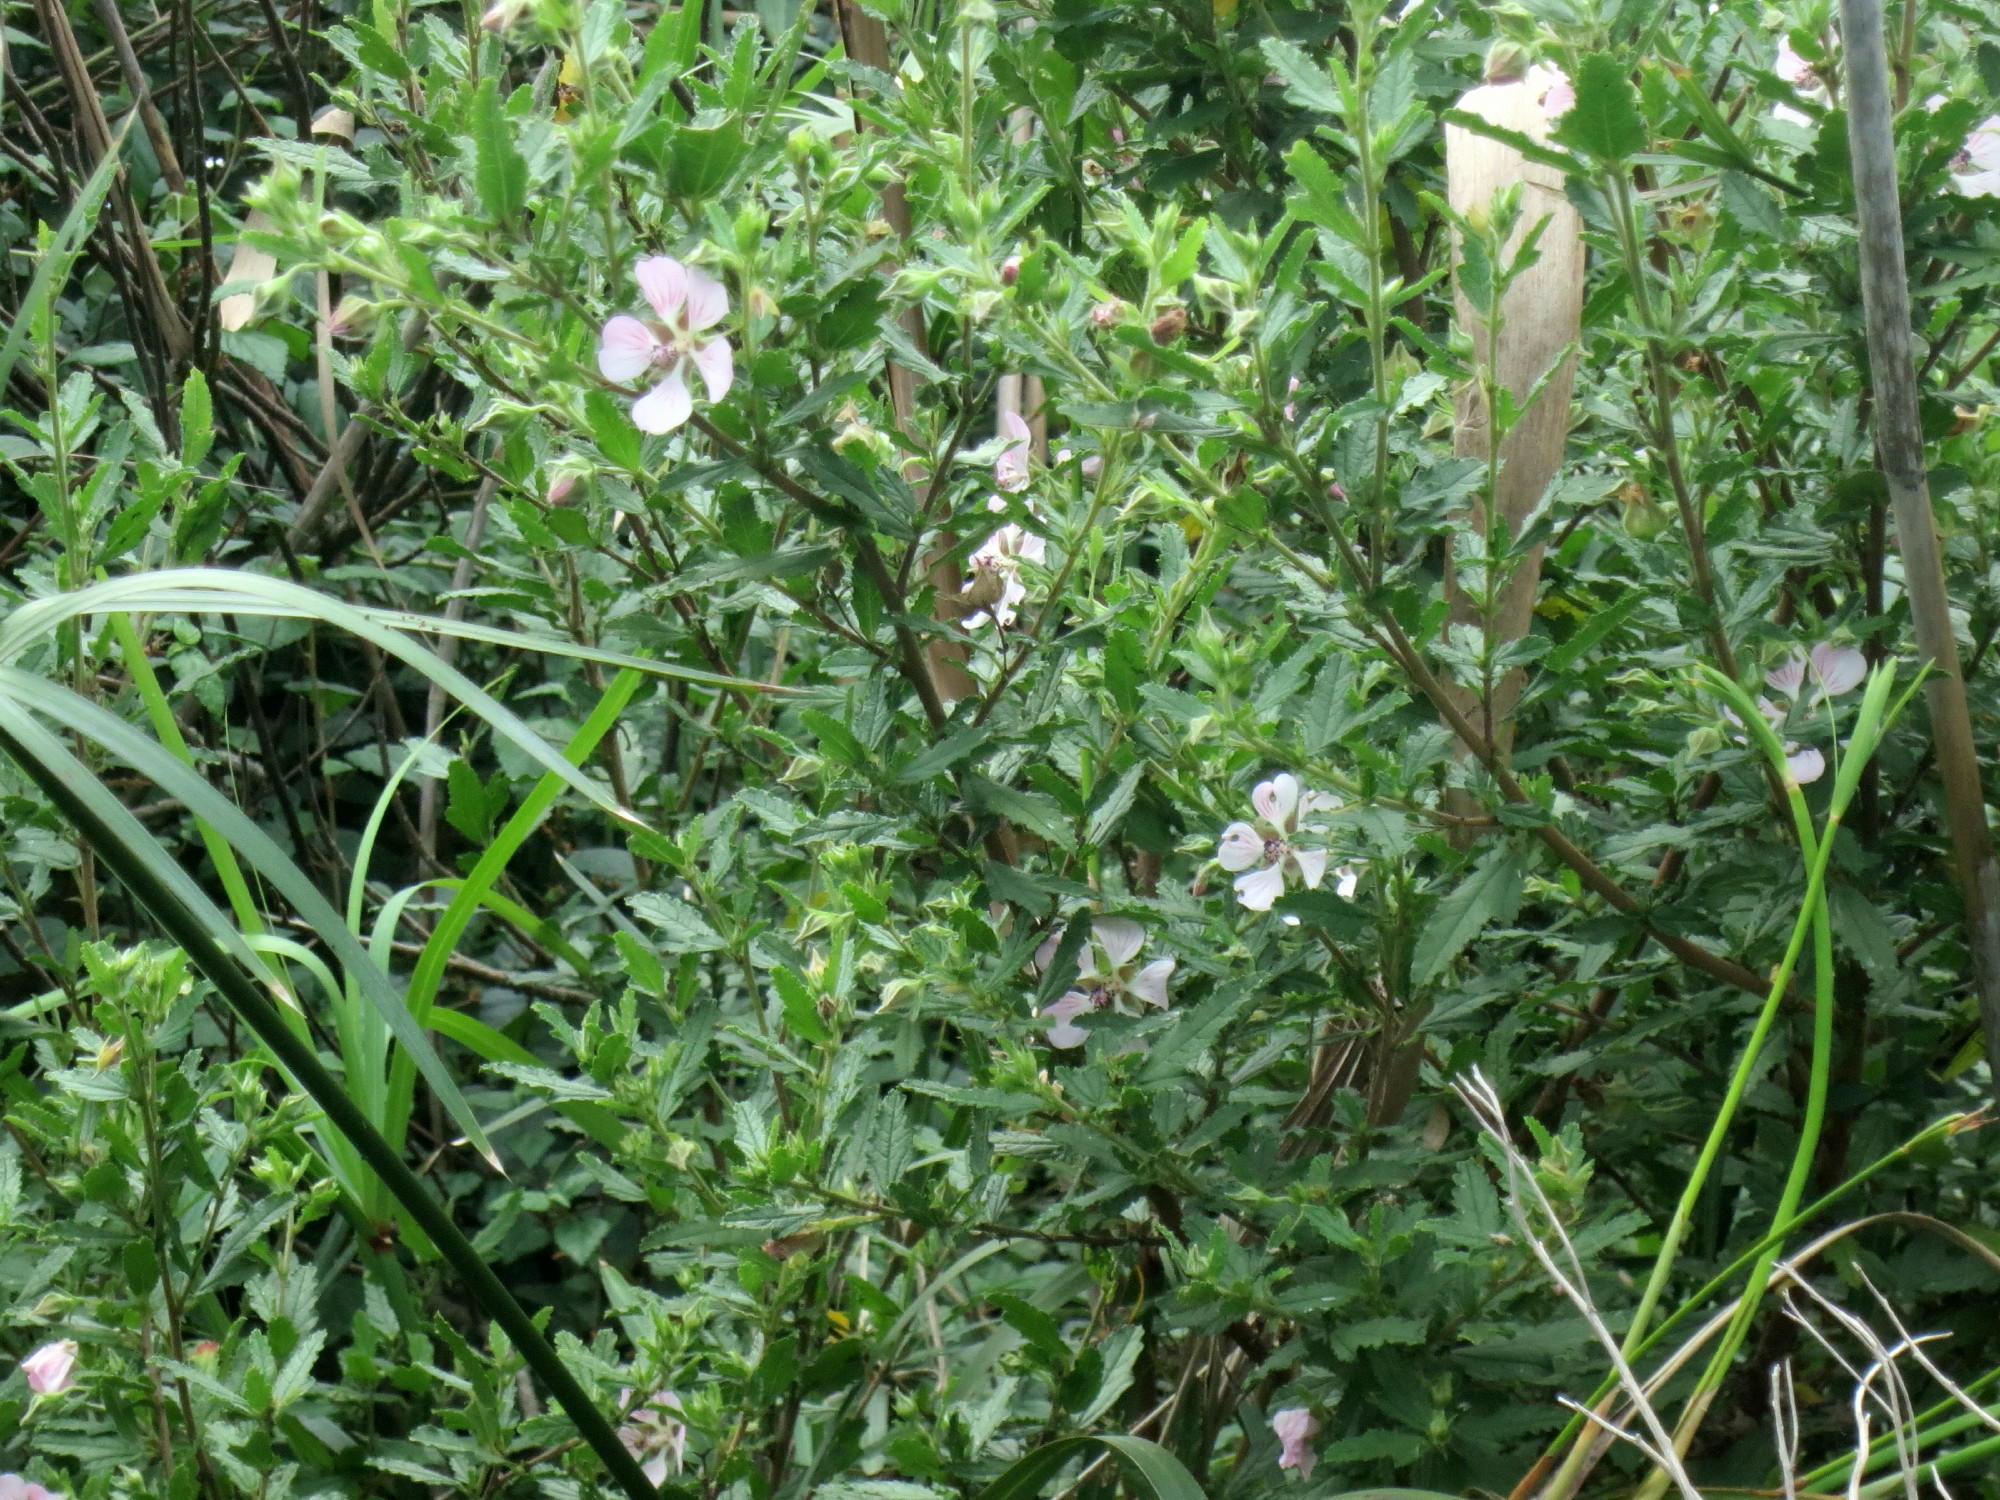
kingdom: Plantae
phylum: Tracheophyta
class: Magnoliopsida
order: Malvales
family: Malvaceae
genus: Anisodontea
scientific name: Anisodontea scabrosa
